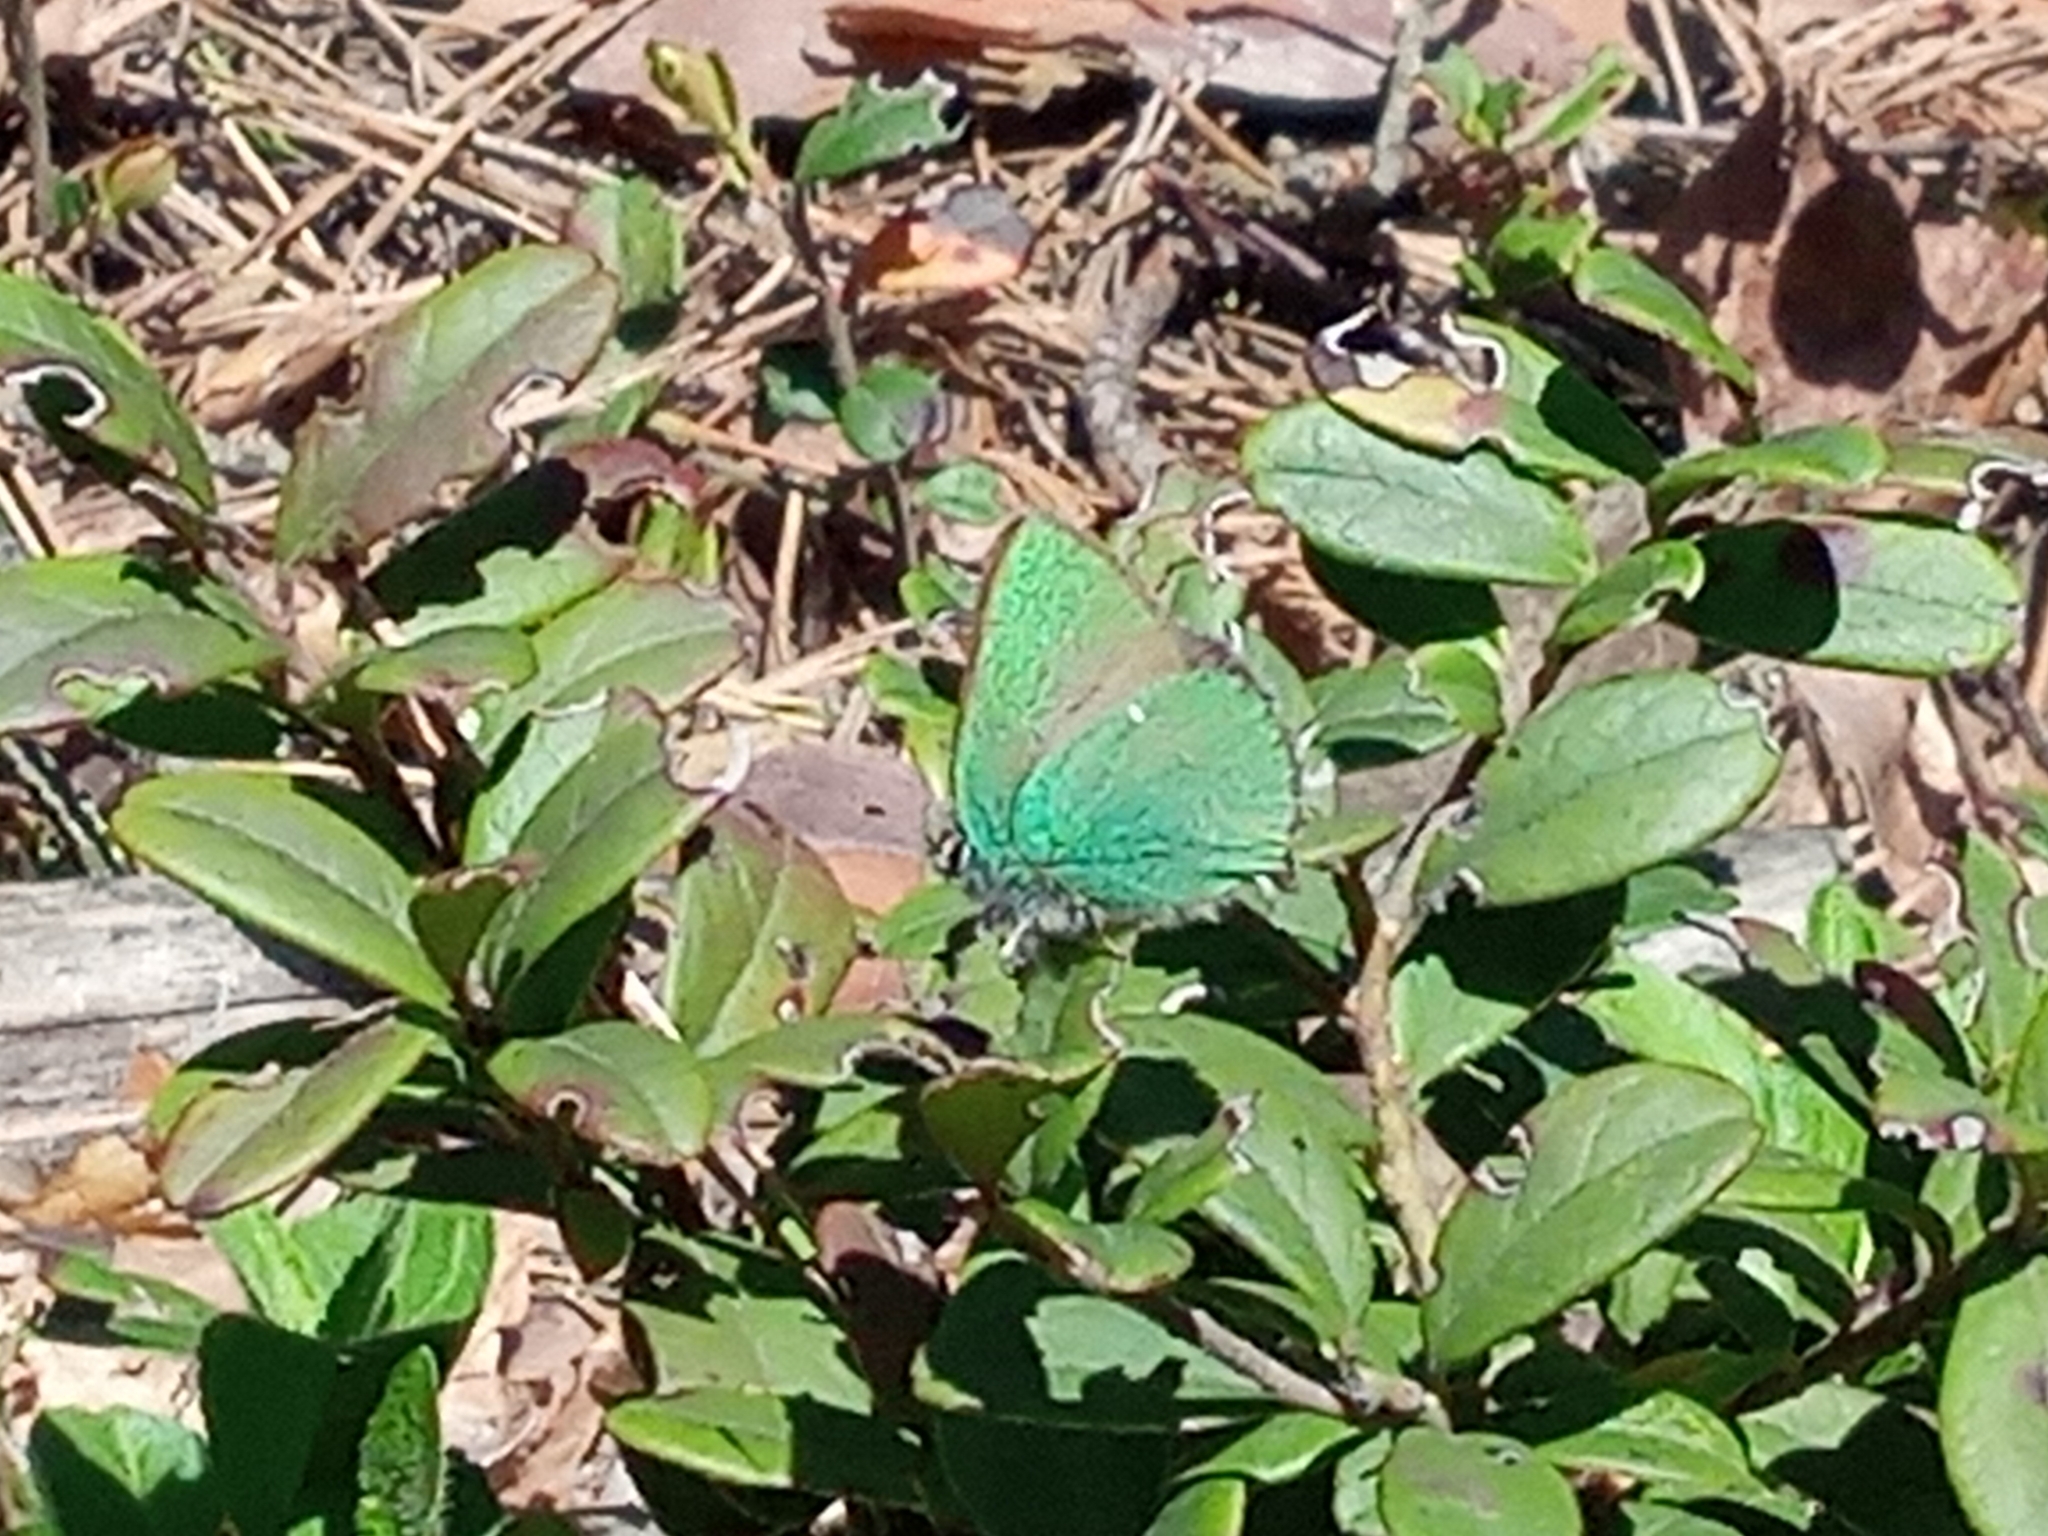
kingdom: Animalia
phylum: Arthropoda
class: Insecta
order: Lepidoptera
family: Lycaenidae
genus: Callophrys
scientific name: Callophrys rubi
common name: Green hairstreak
